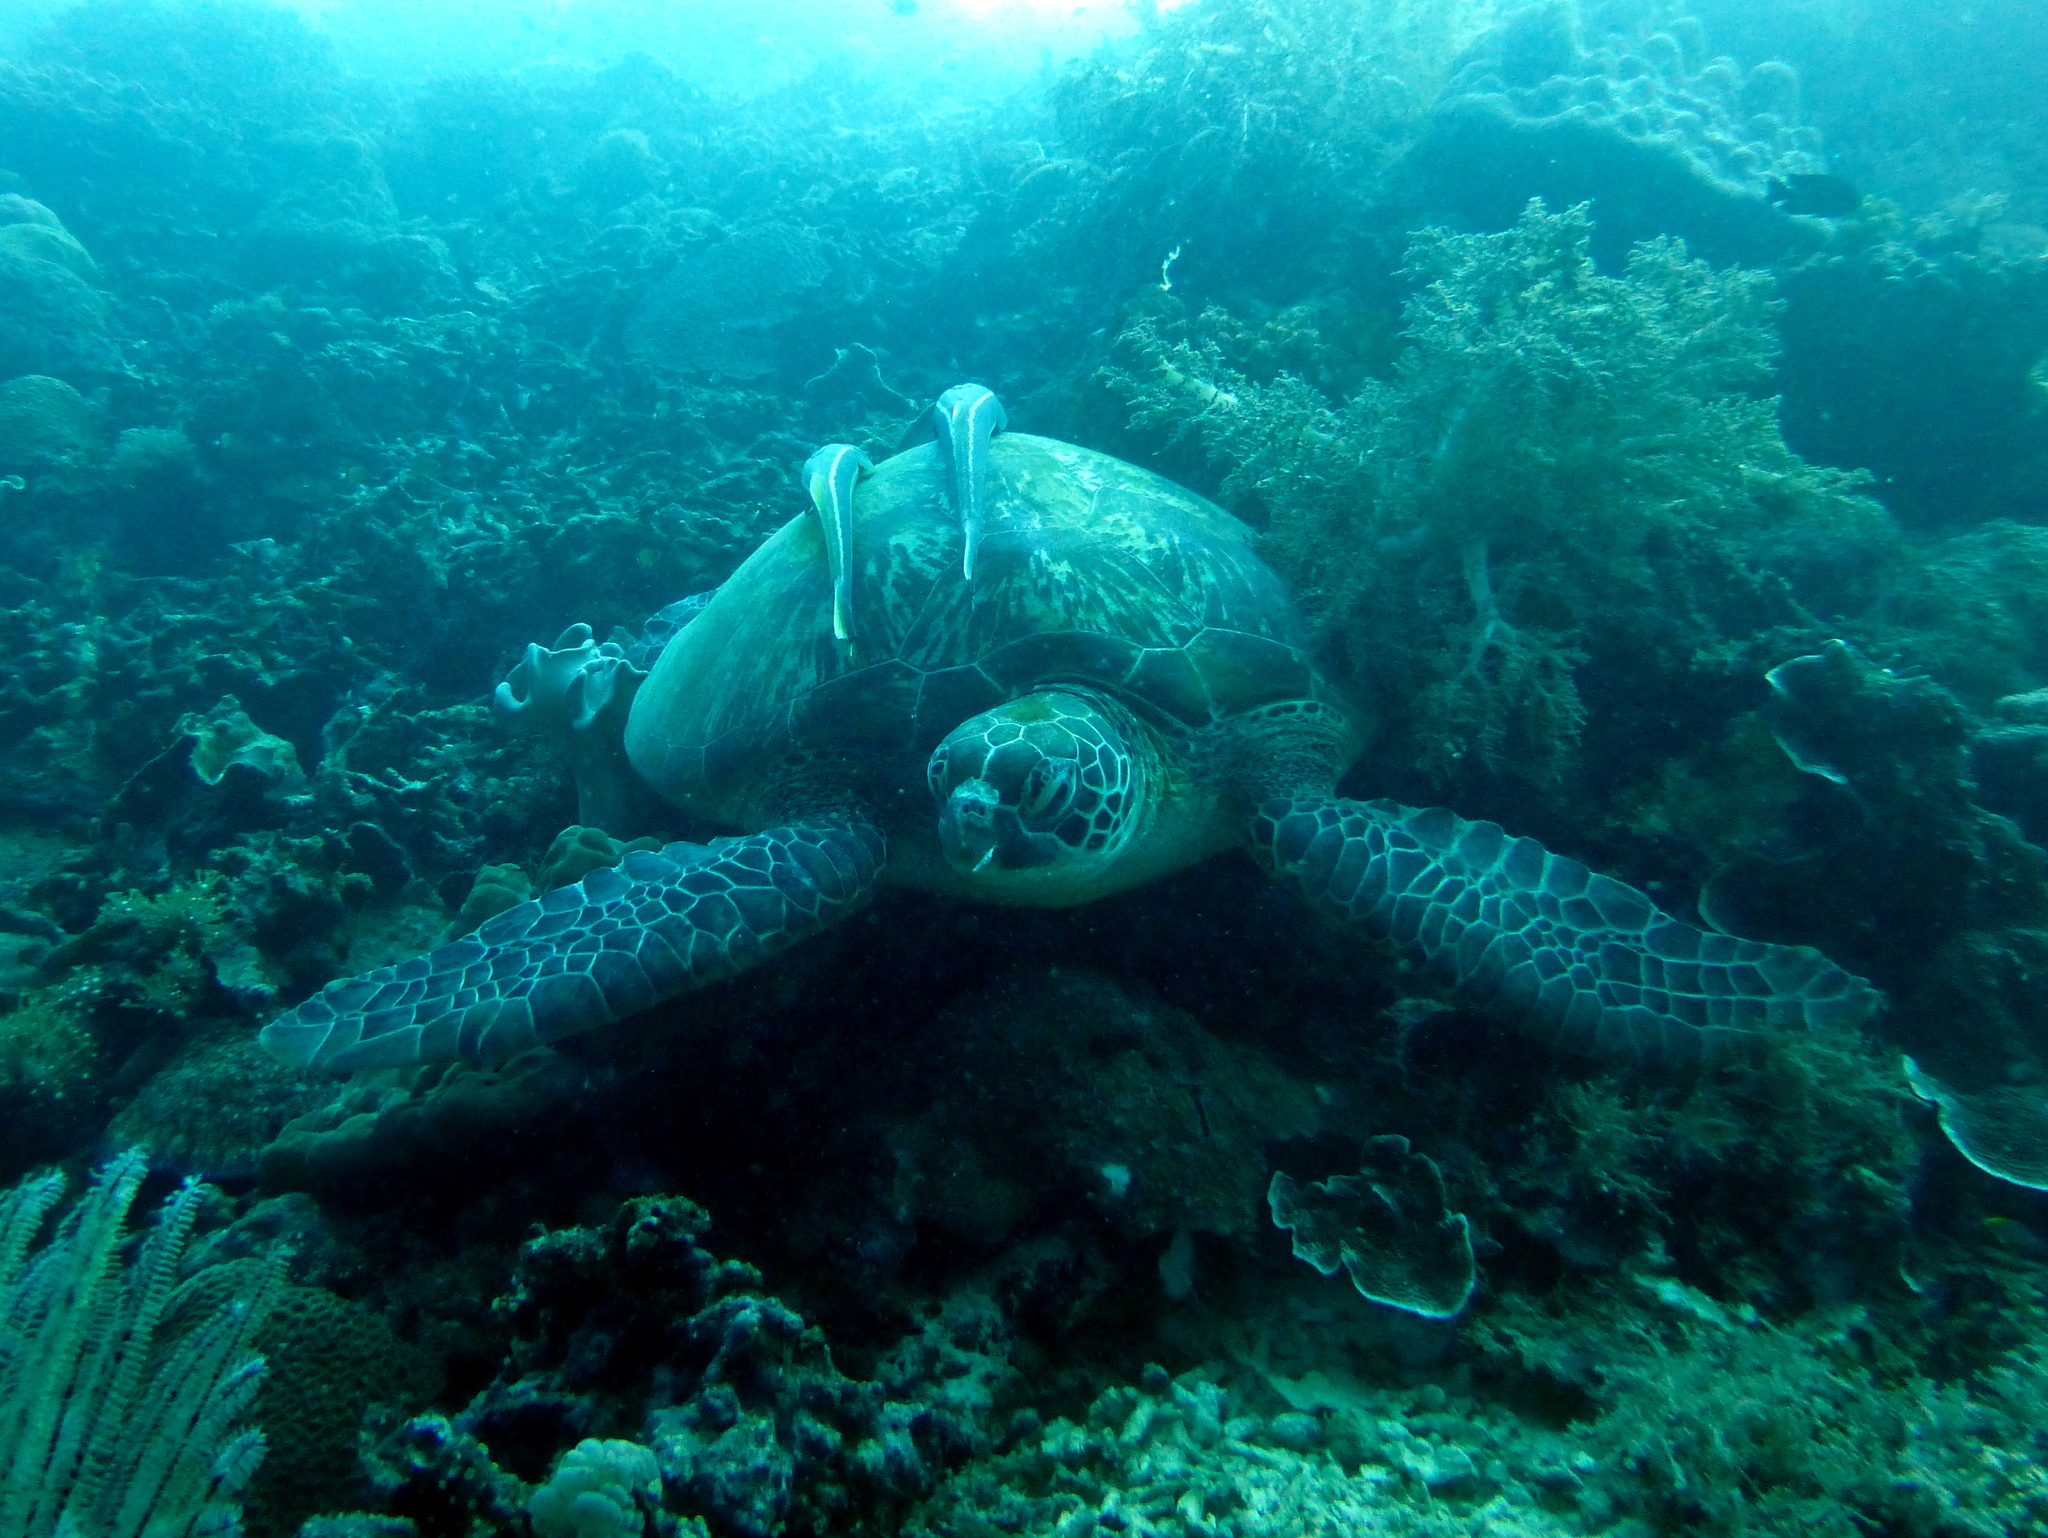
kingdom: Animalia
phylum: Chordata
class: Testudines
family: Cheloniidae
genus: Chelonia
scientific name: Chelonia mydas
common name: Green turtle
